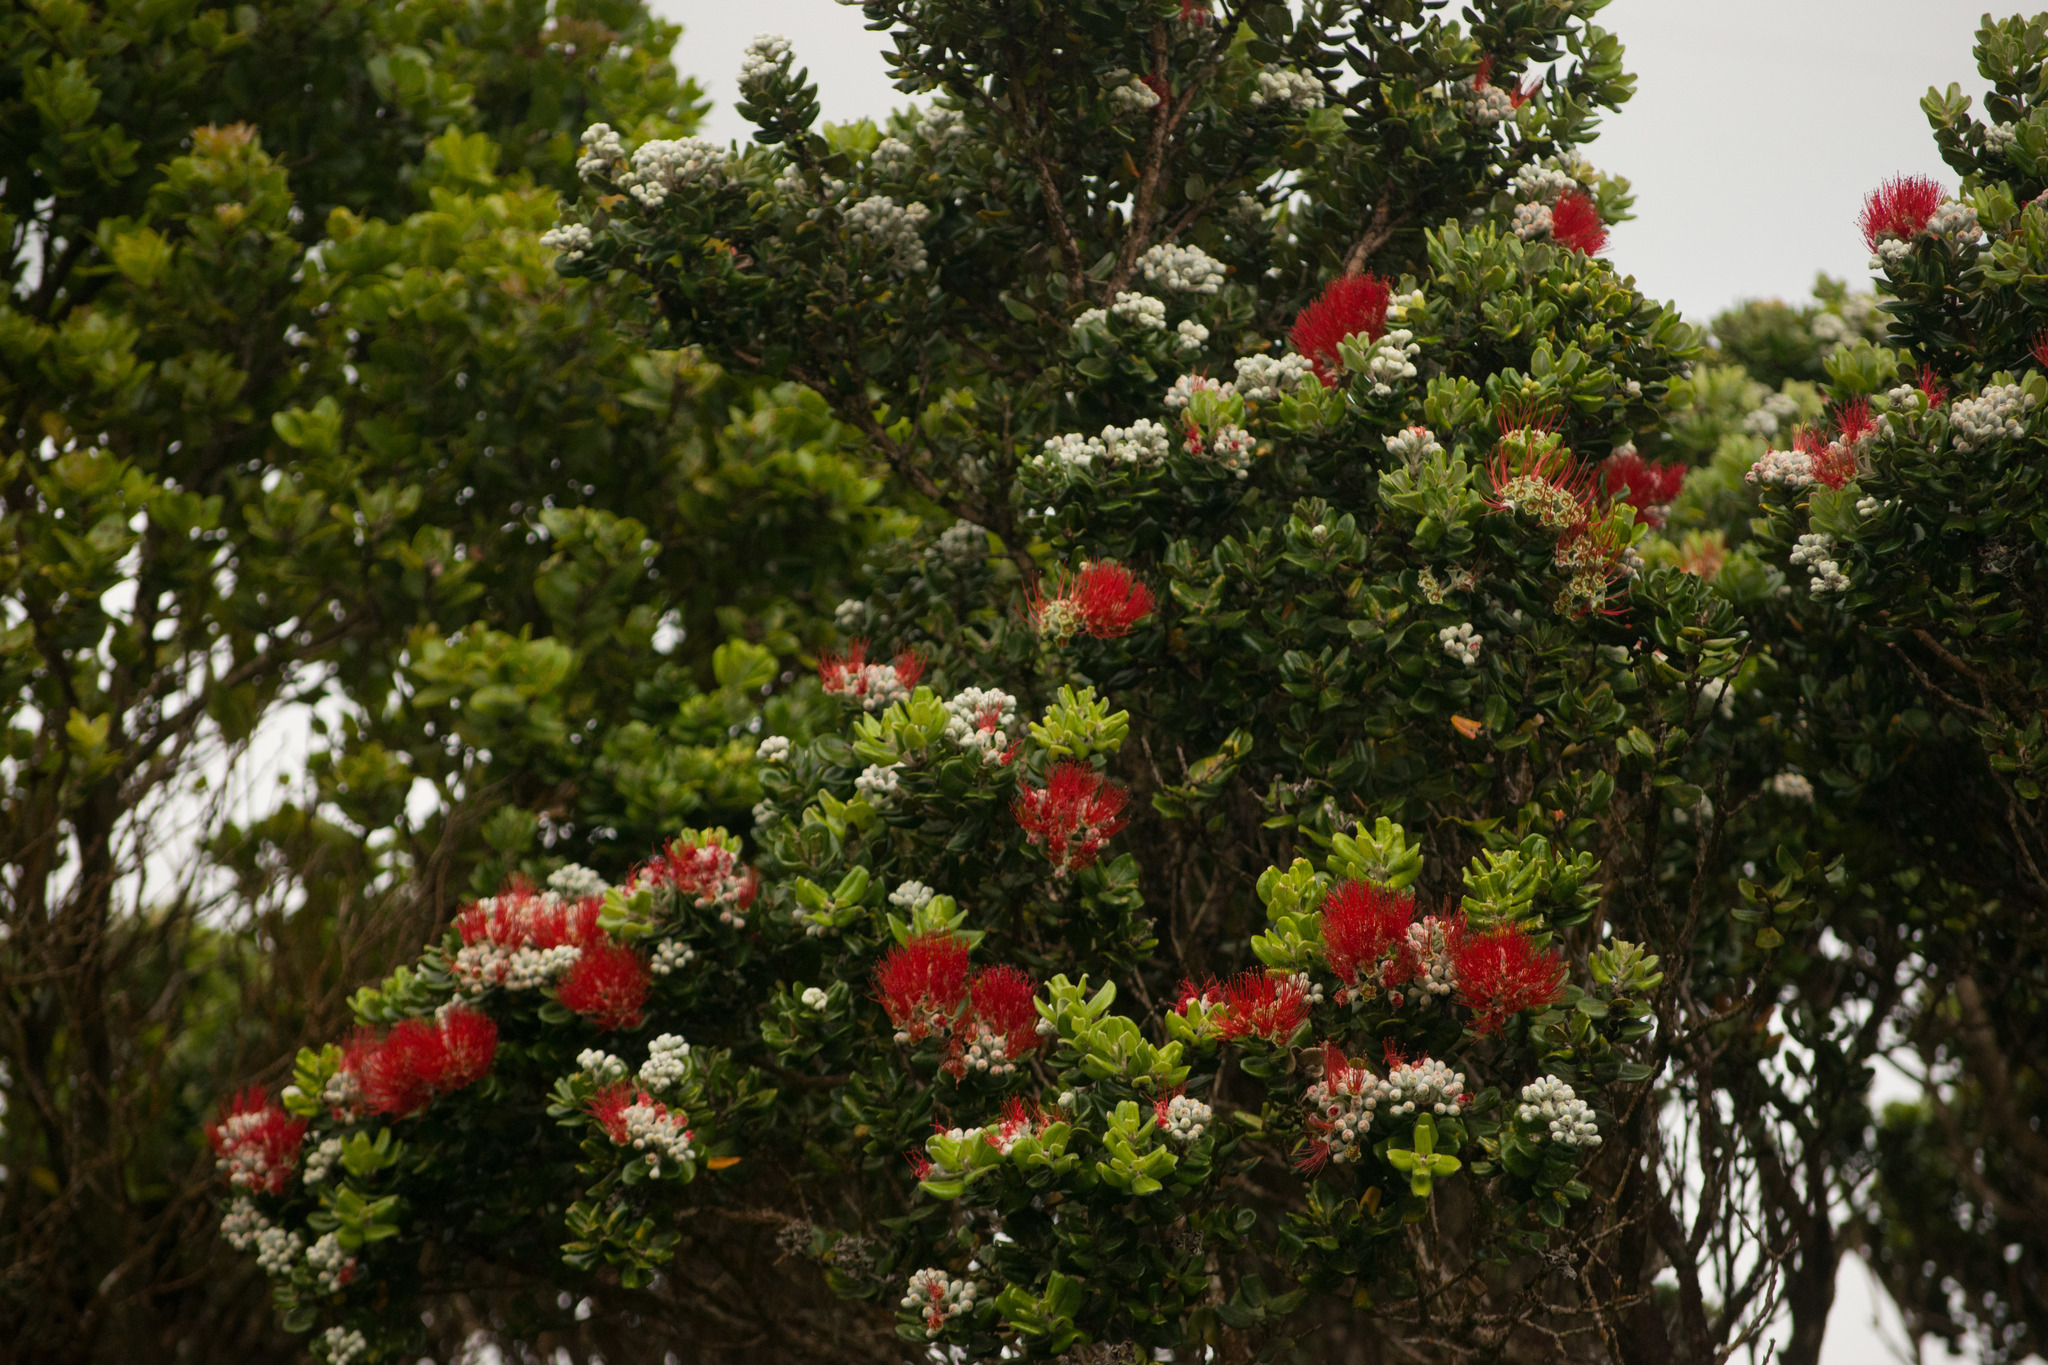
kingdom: Plantae
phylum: Tracheophyta
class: Magnoliopsida
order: Myrtales
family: Myrtaceae
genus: Metrosideros
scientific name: Metrosideros polymorpha
